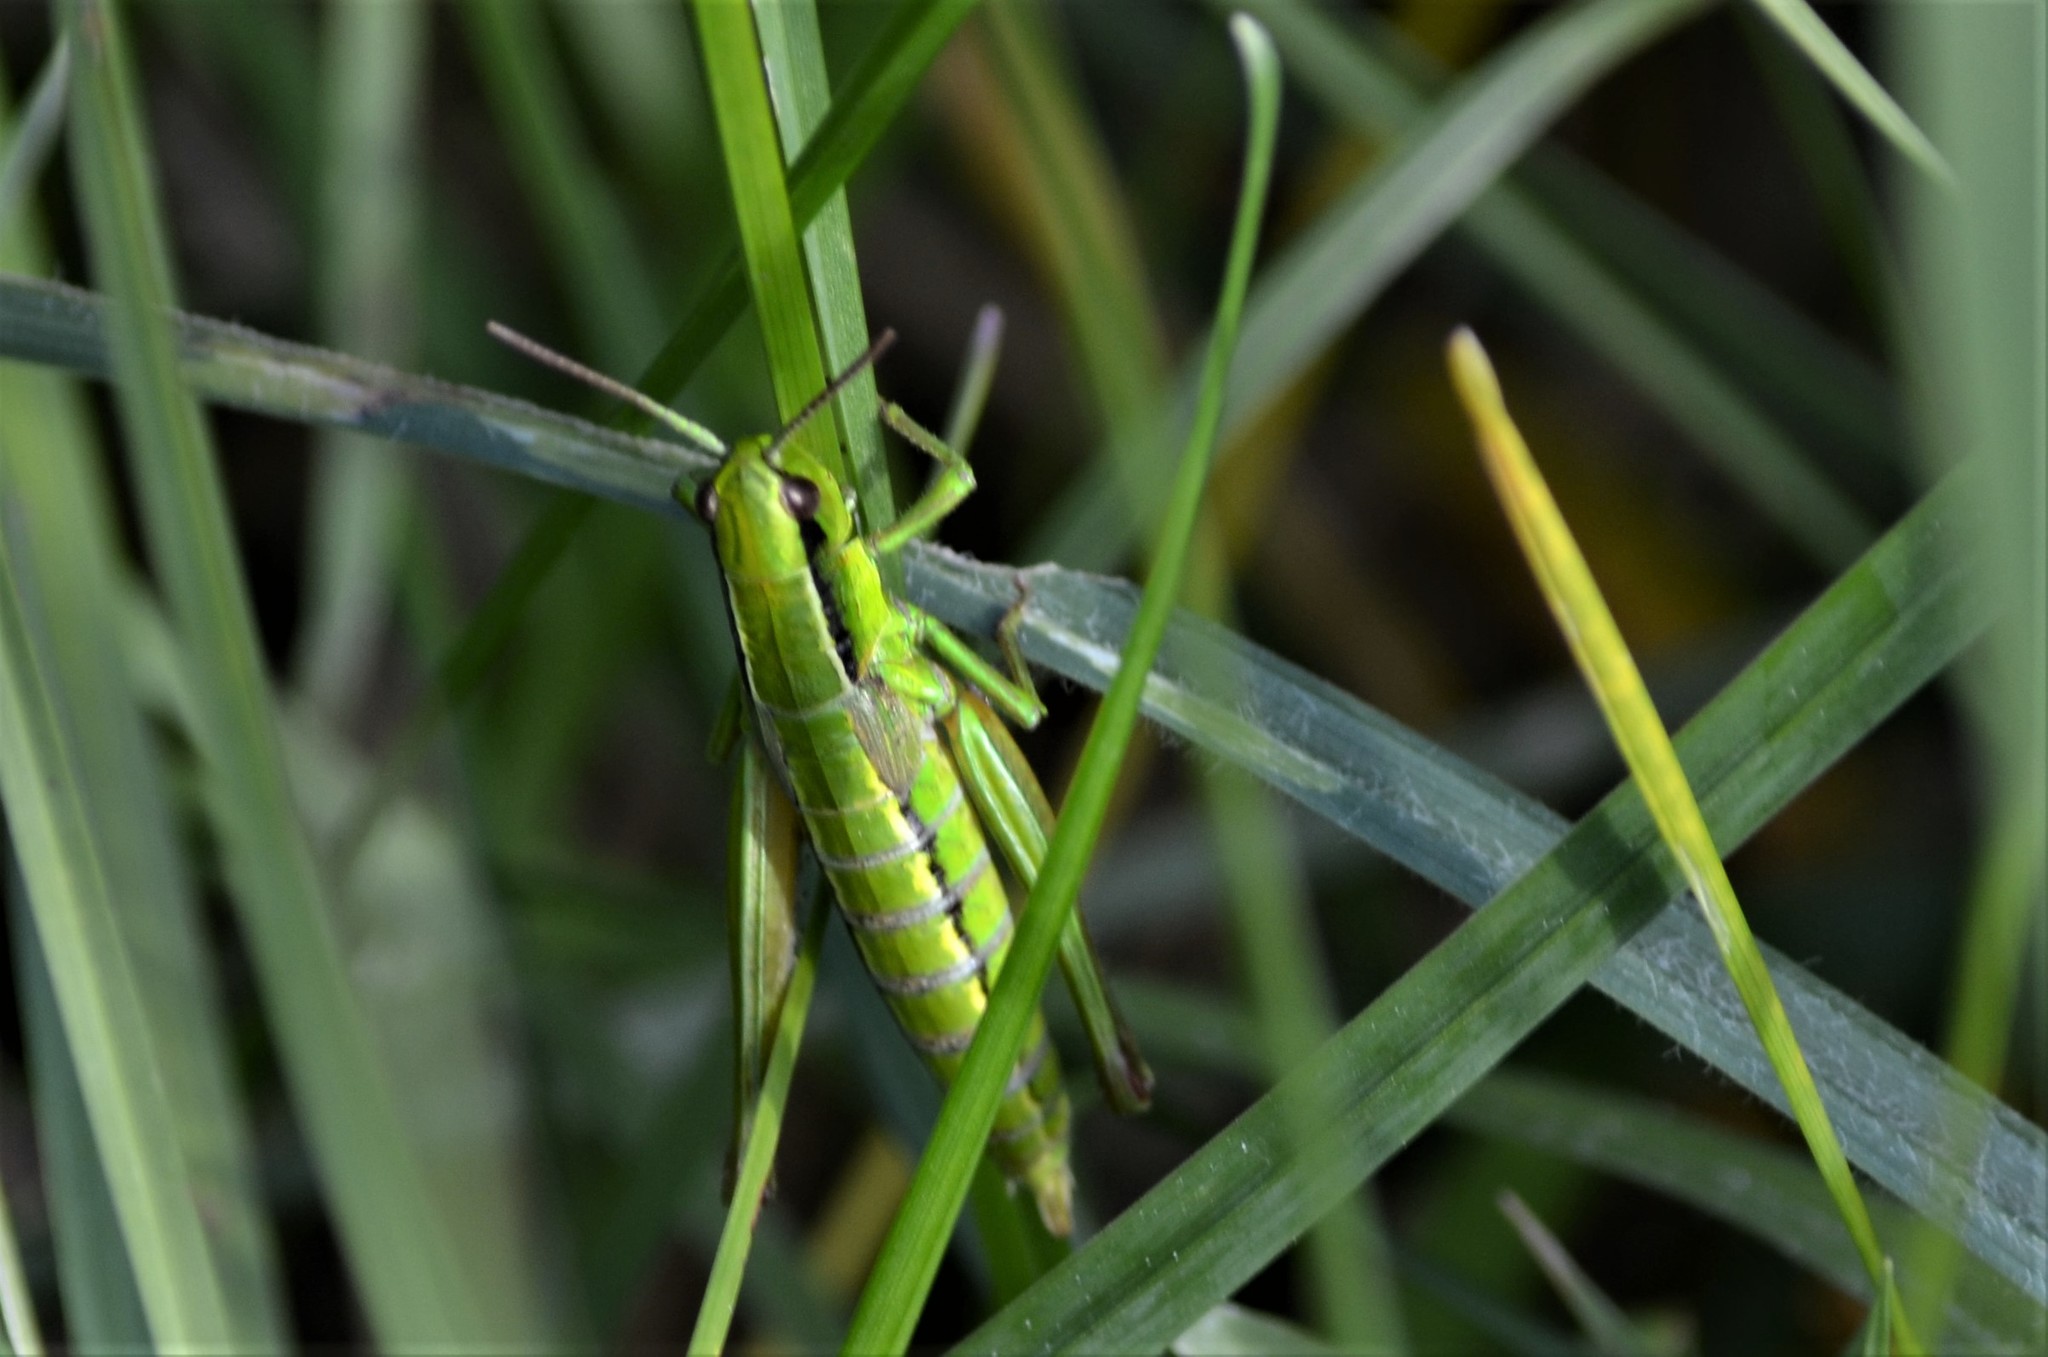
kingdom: Animalia
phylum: Arthropoda
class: Insecta
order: Orthoptera
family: Acrididae
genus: Euthystira
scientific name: Euthystira brachyptera
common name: Small gold grasshopper
